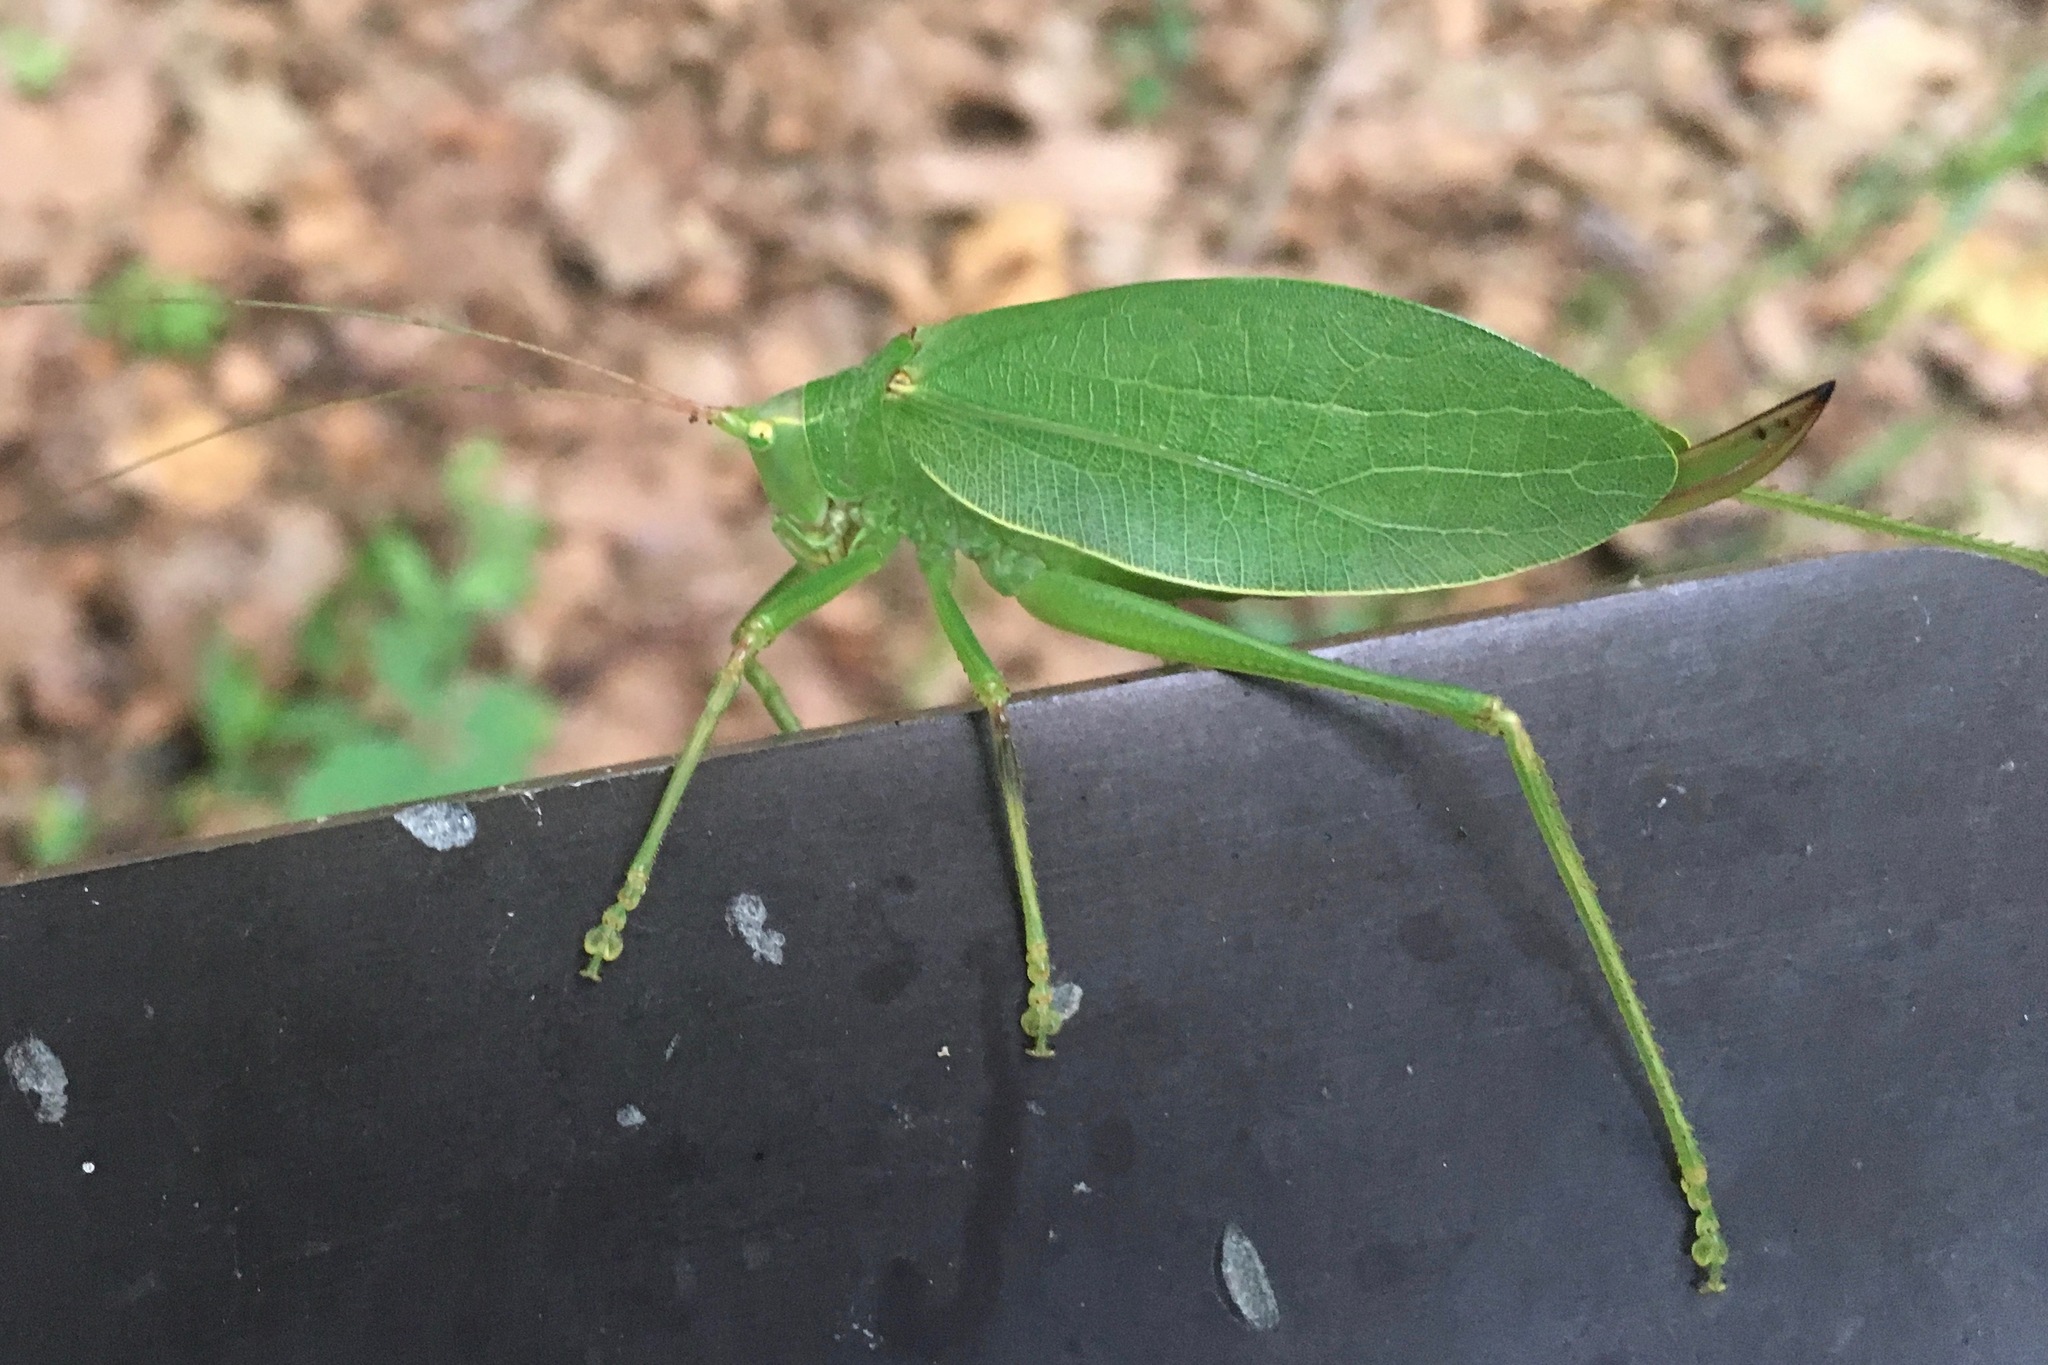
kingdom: Animalia
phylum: Arthropoda
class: Insecta
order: Orthoptera
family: Tettigoniidae
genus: Pterophylla
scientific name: Pterophylla camellifolia
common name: Common true katydid
